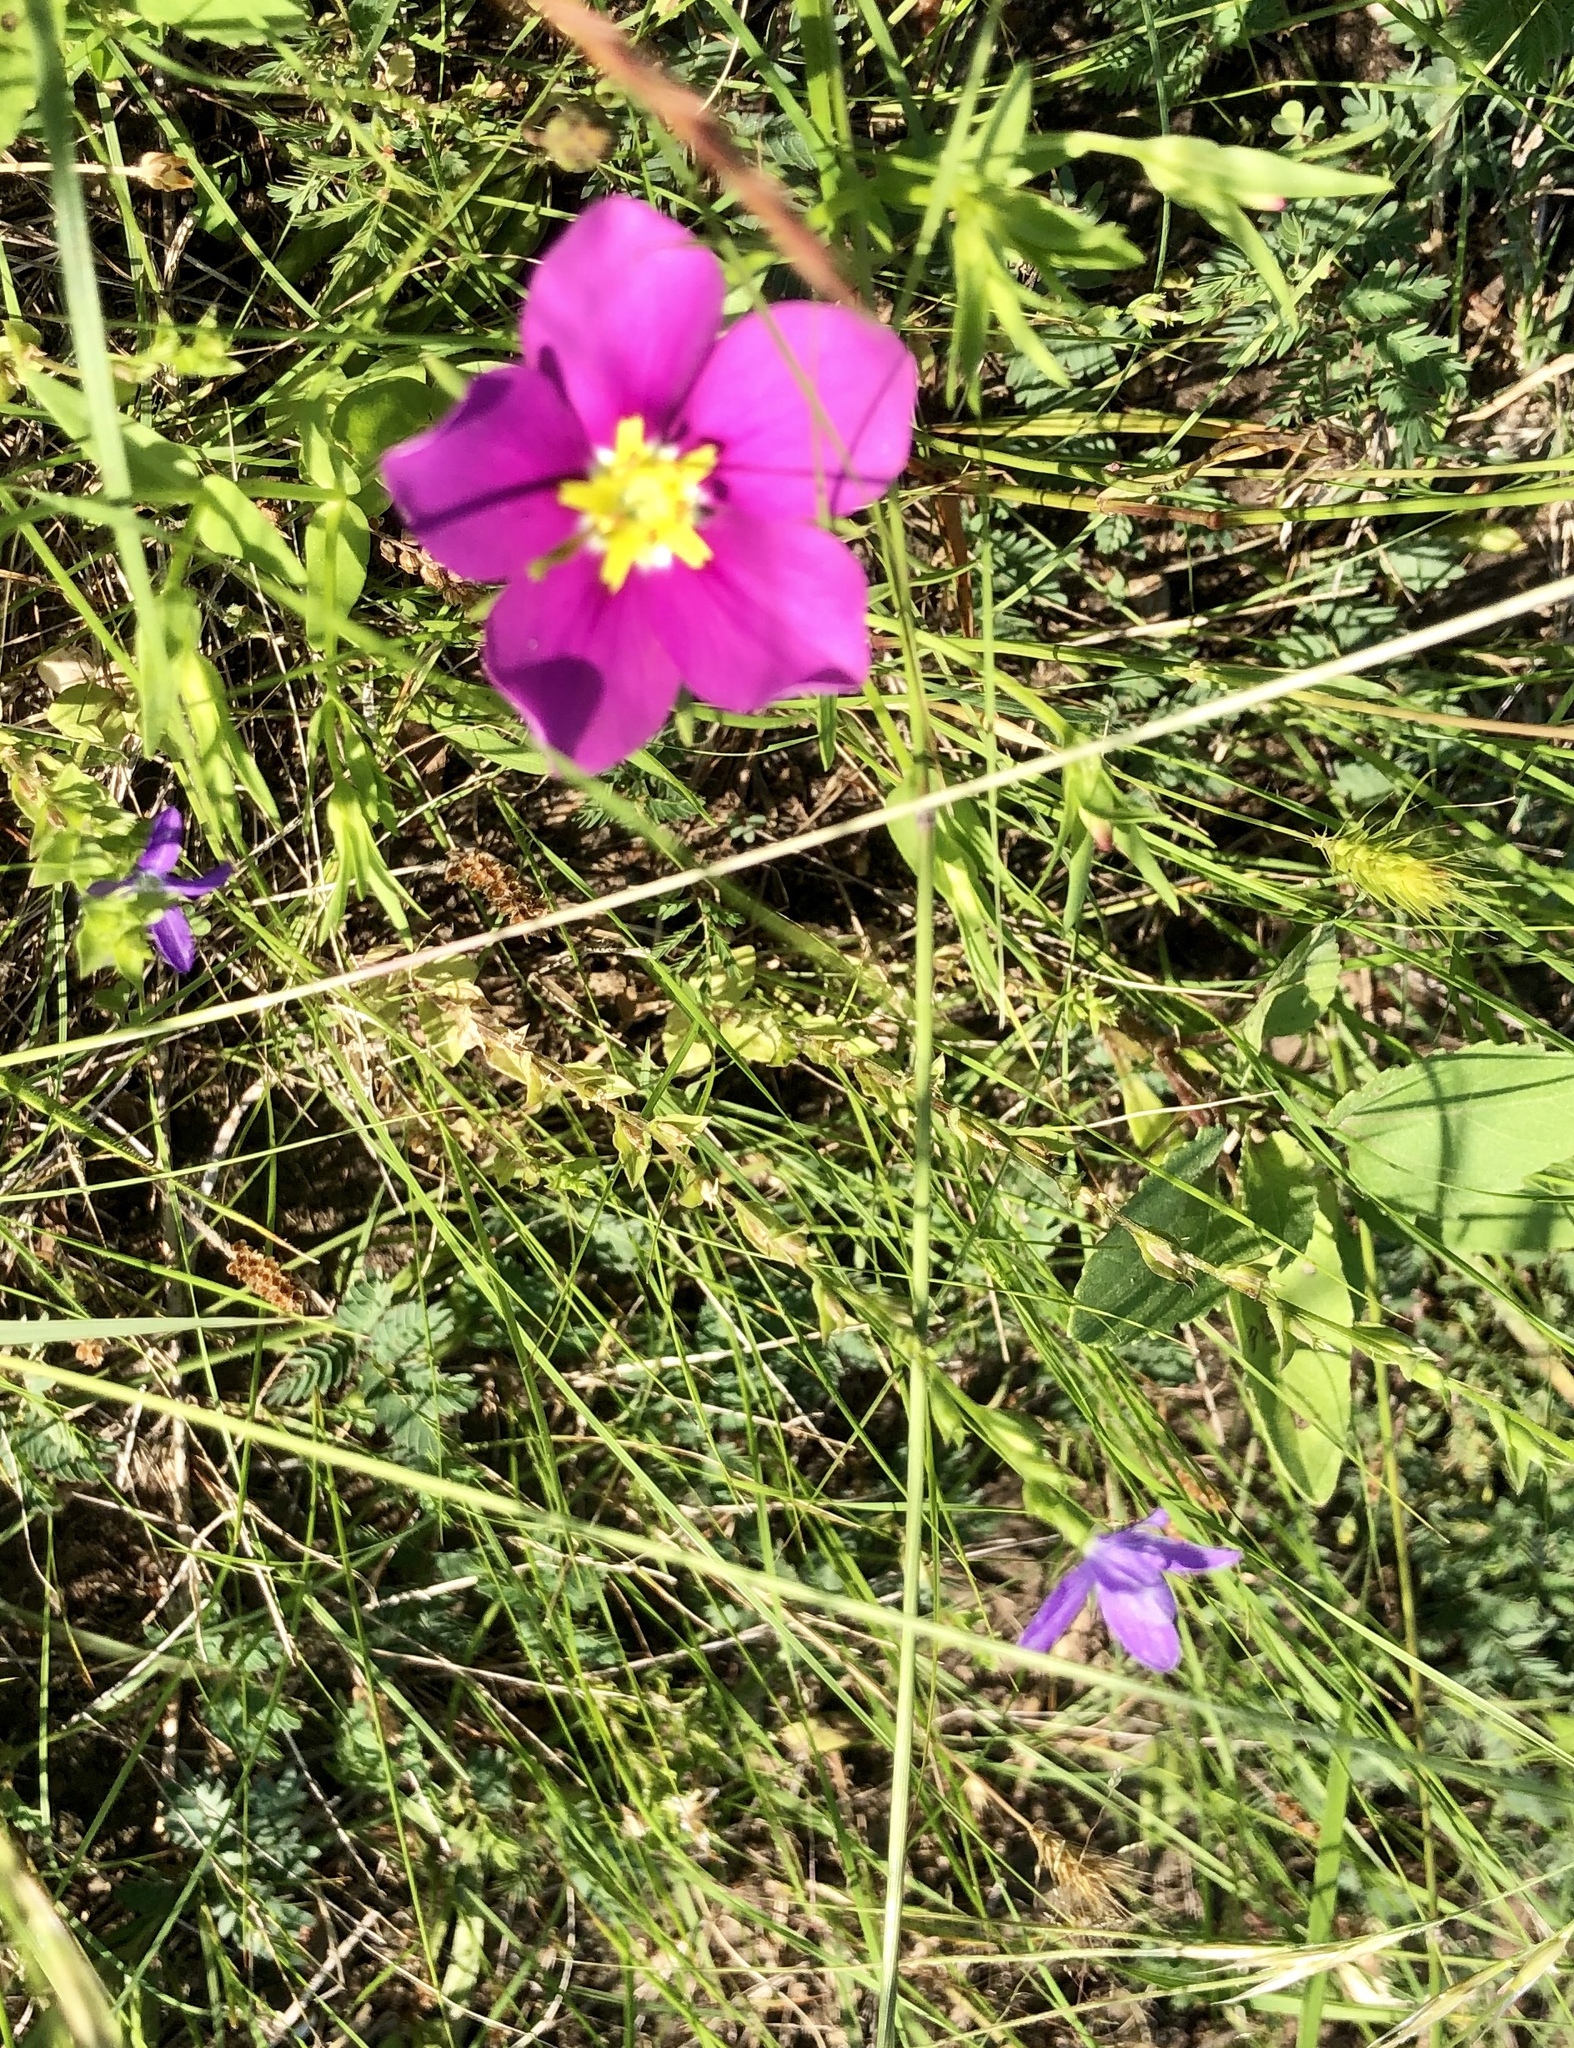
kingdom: Plantae
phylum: Tracheophyta
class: Magnoliopsida
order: Gentianales
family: Gentianaceae
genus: Sabatia
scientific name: Sabatia campestris
